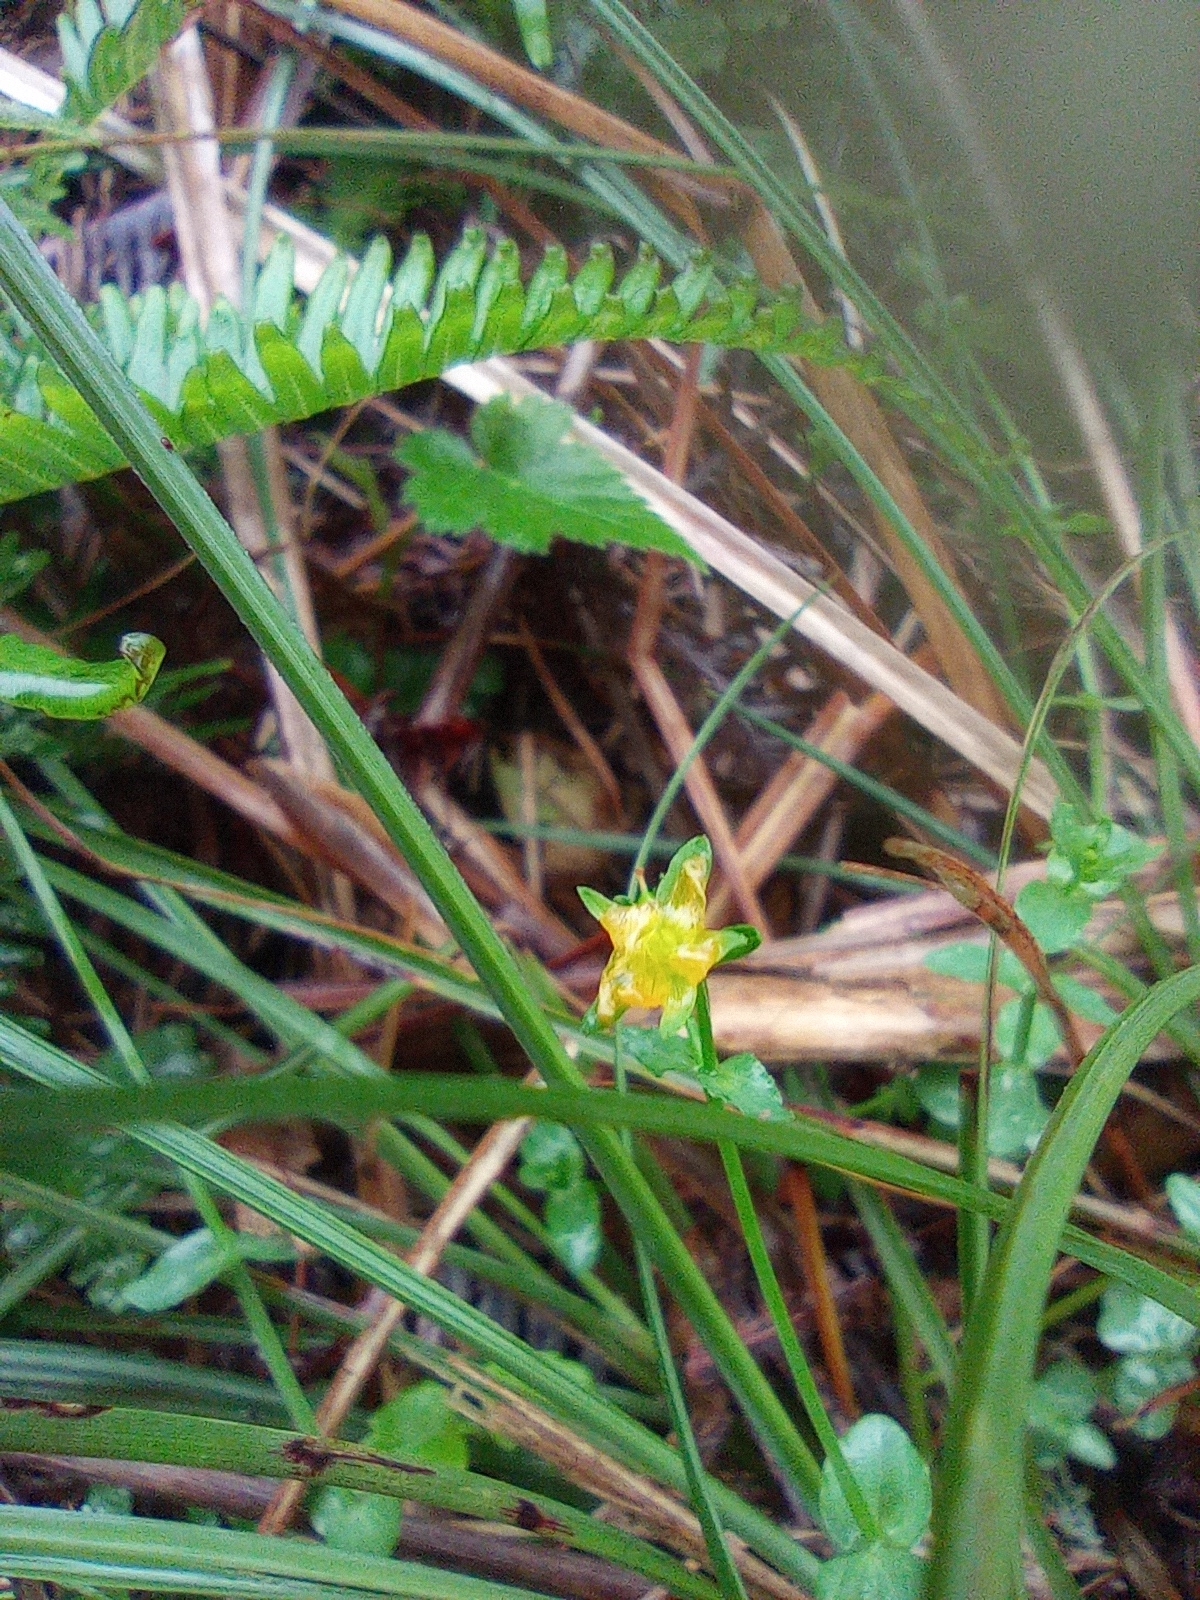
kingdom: Plantae
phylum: Tracheophyta
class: Magnoliopsida
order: Malpighiales
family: Hypericaceae
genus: Hypericum
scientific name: Hypericum japonicum
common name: Matted st. john's-wort
